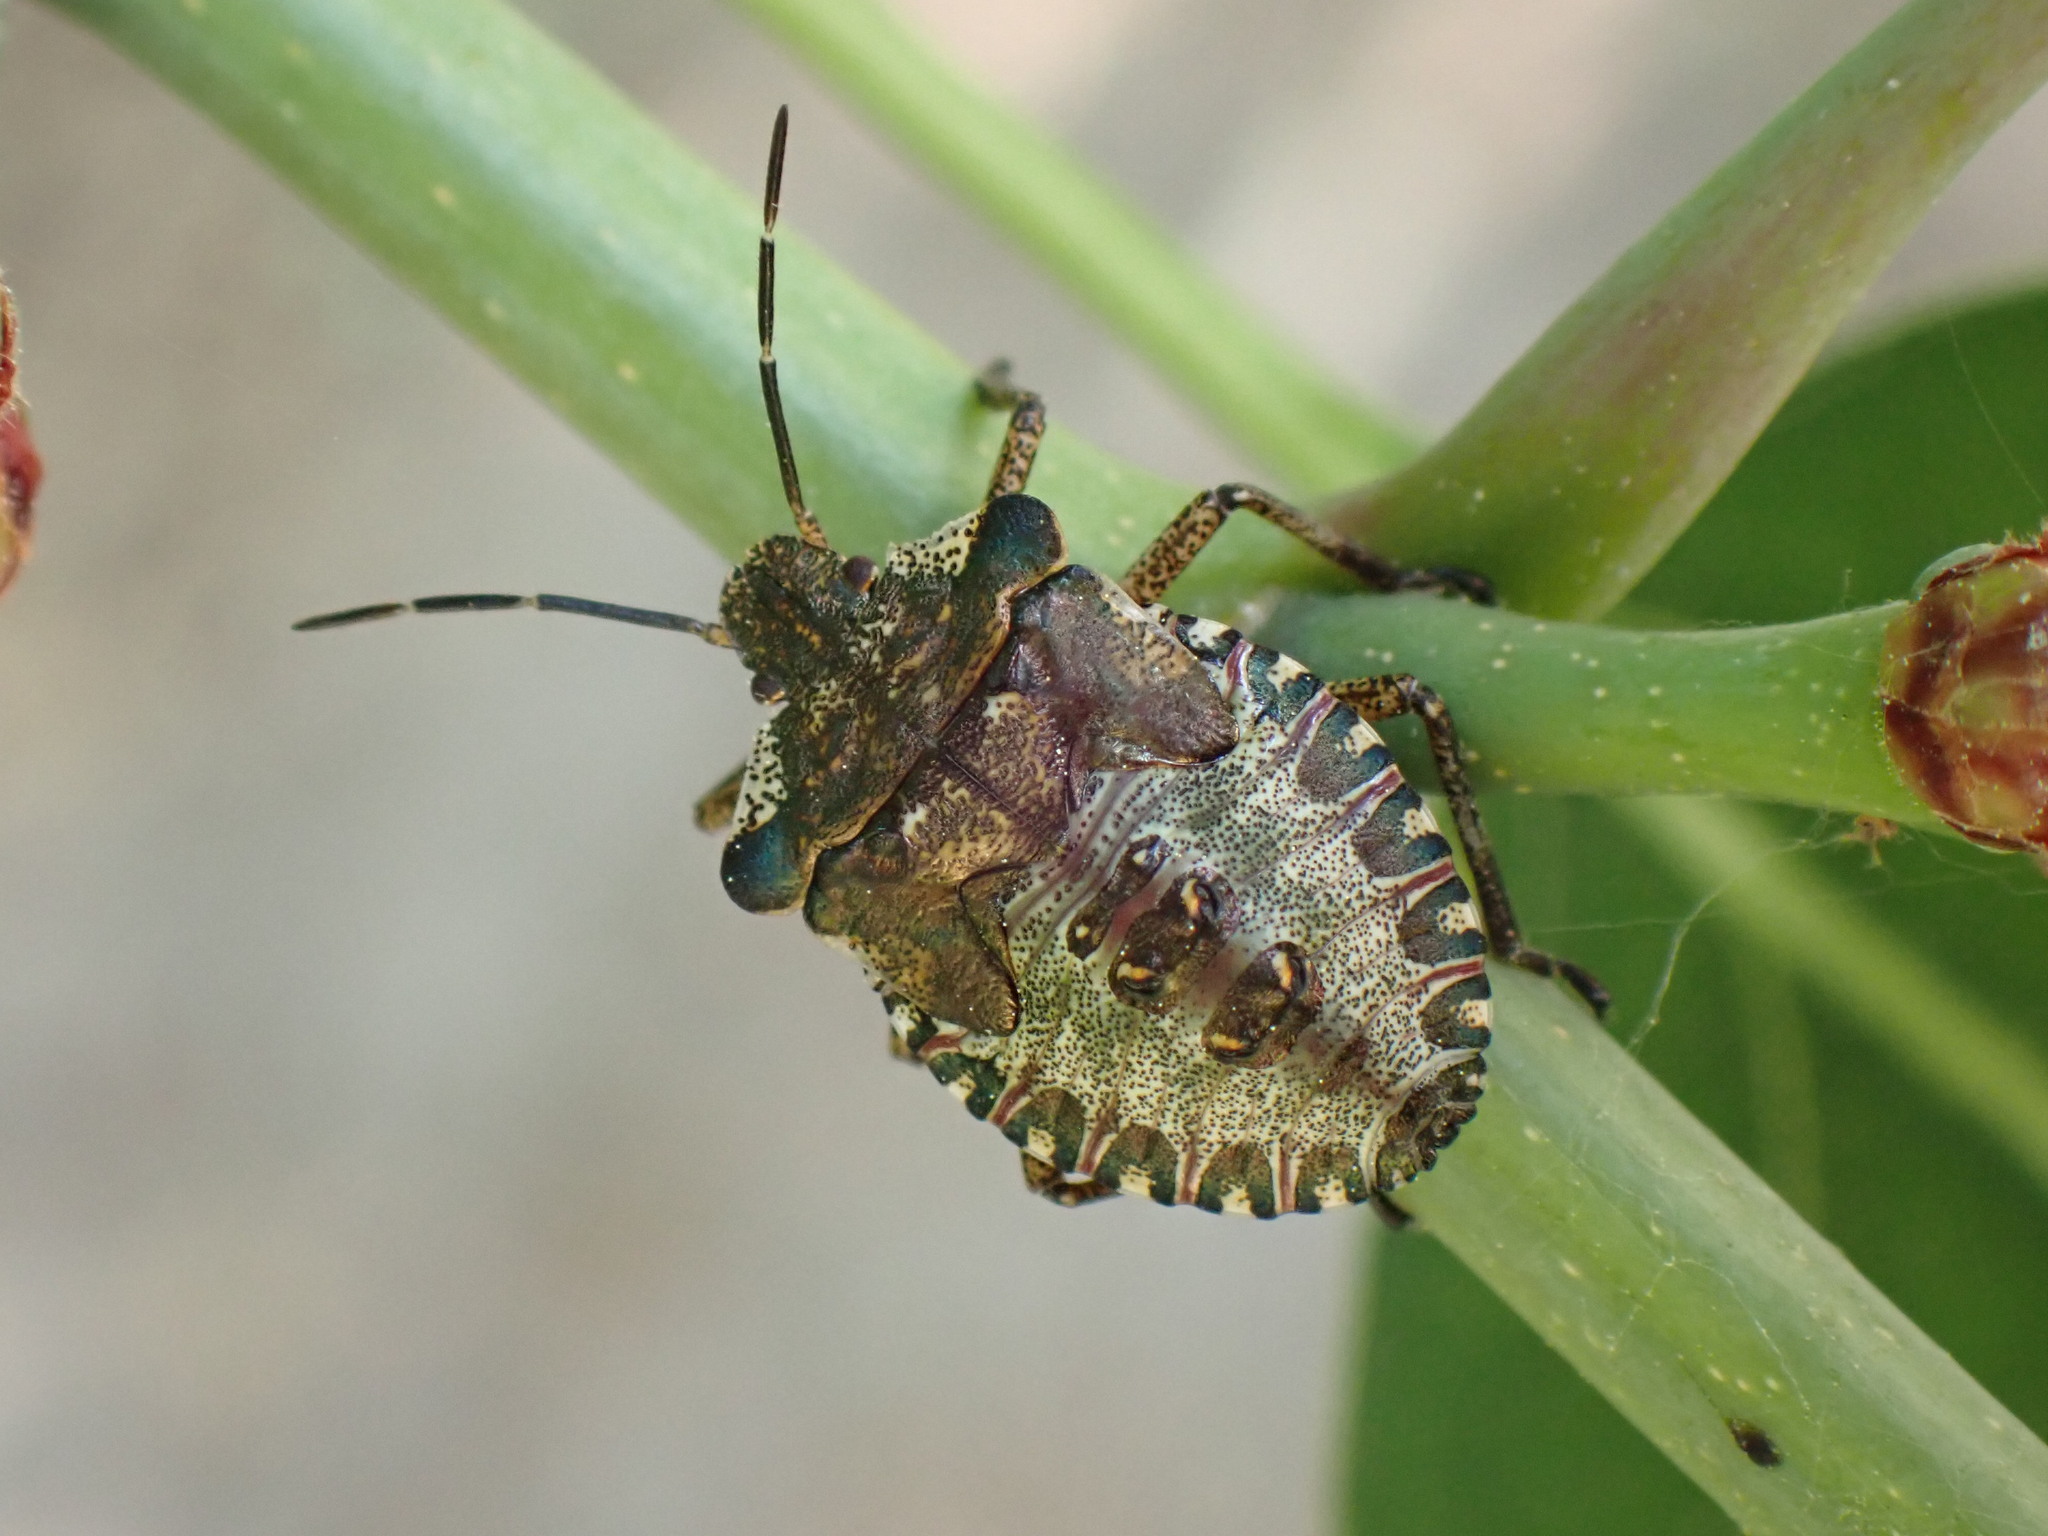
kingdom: Animalia
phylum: Arthropoda
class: Insecta
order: Hemiptera
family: Pentatomidae
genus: Pentatoma
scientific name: Pentatoma rufipes
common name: Forest bug
